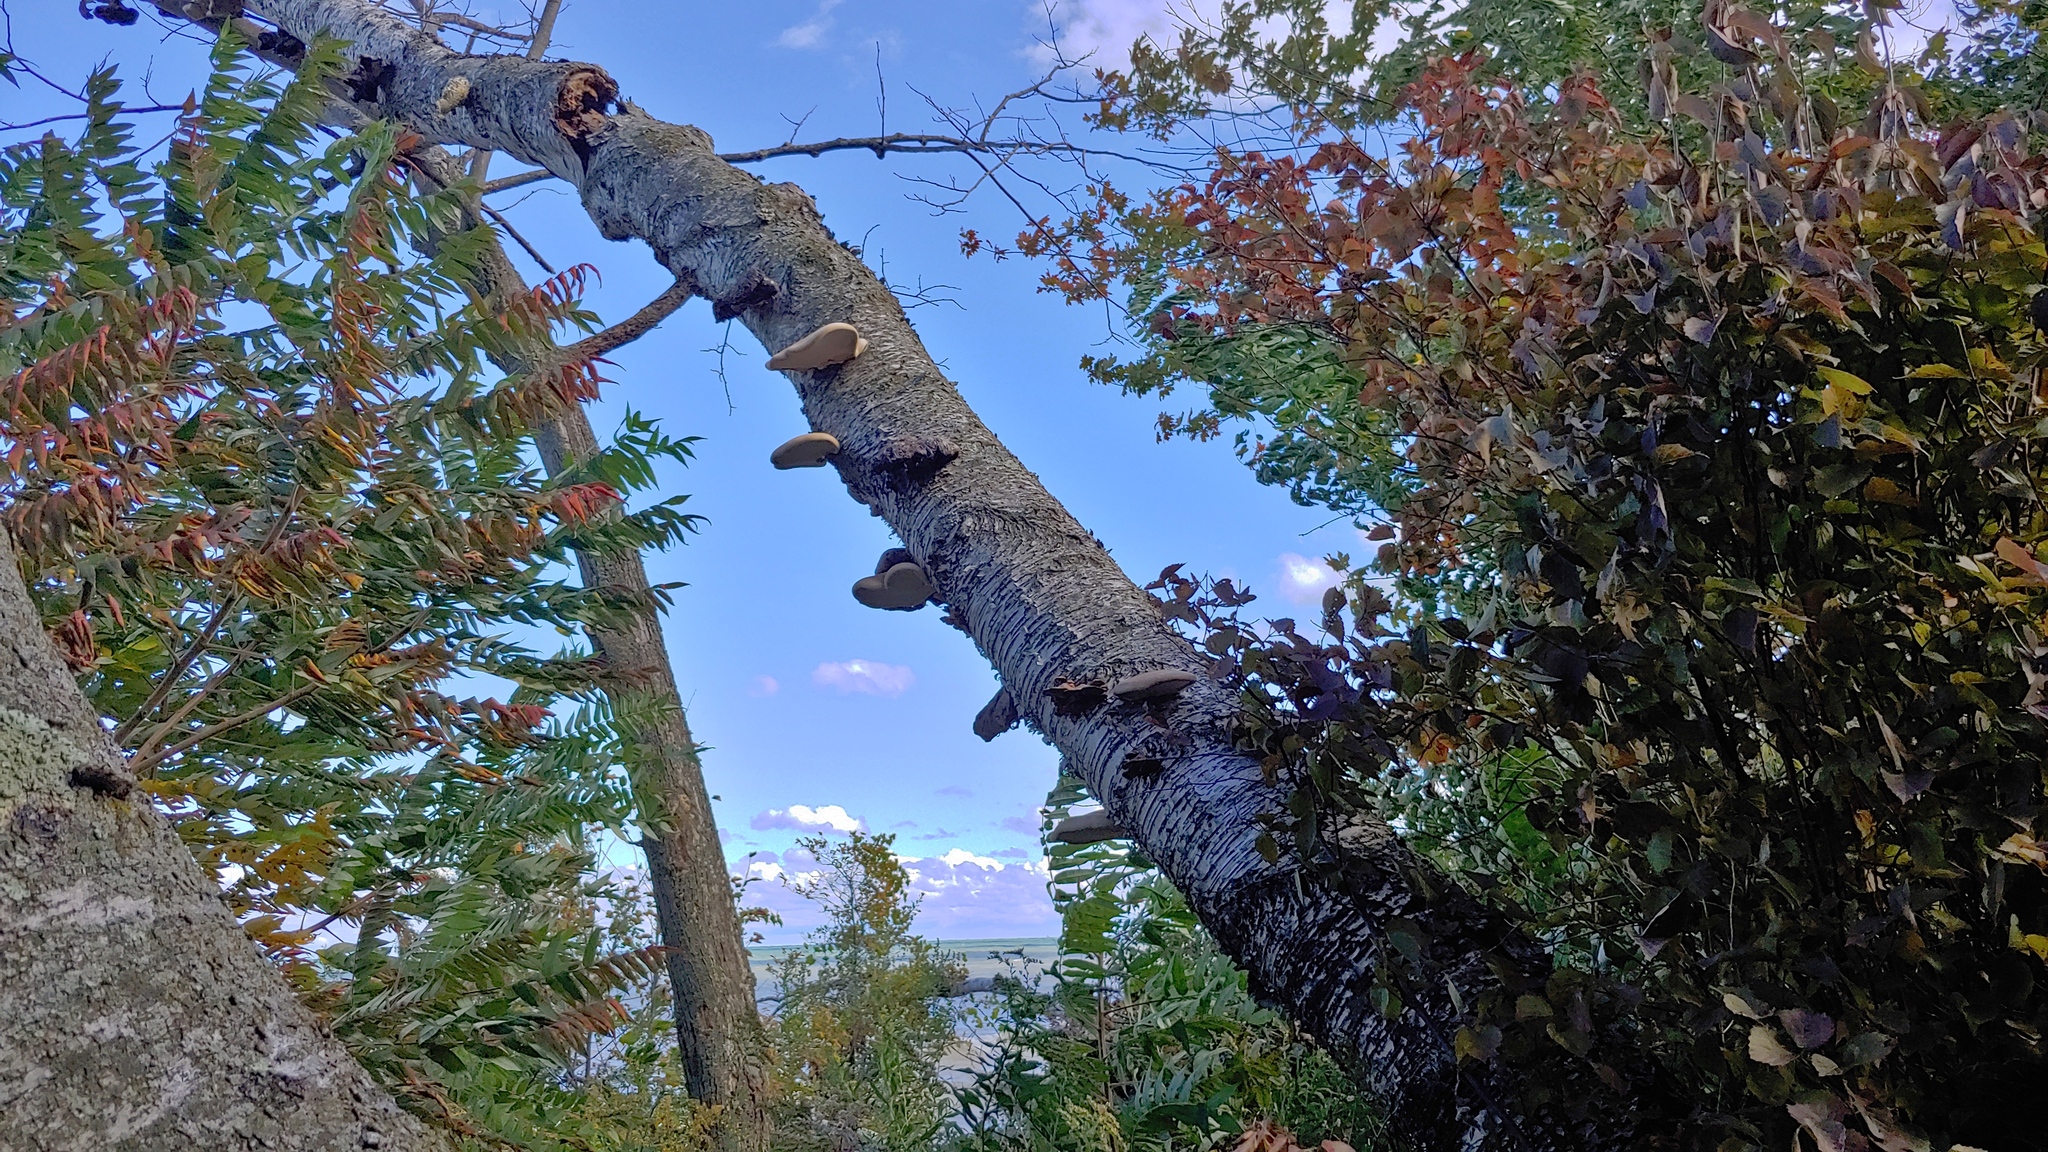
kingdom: Fungi
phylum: Basidiomycota
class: Agaricomycetes
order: Polyporales
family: Fomitopsidaceae
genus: Fomitopsis
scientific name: Fomitopsis betulina
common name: Birch polypore
